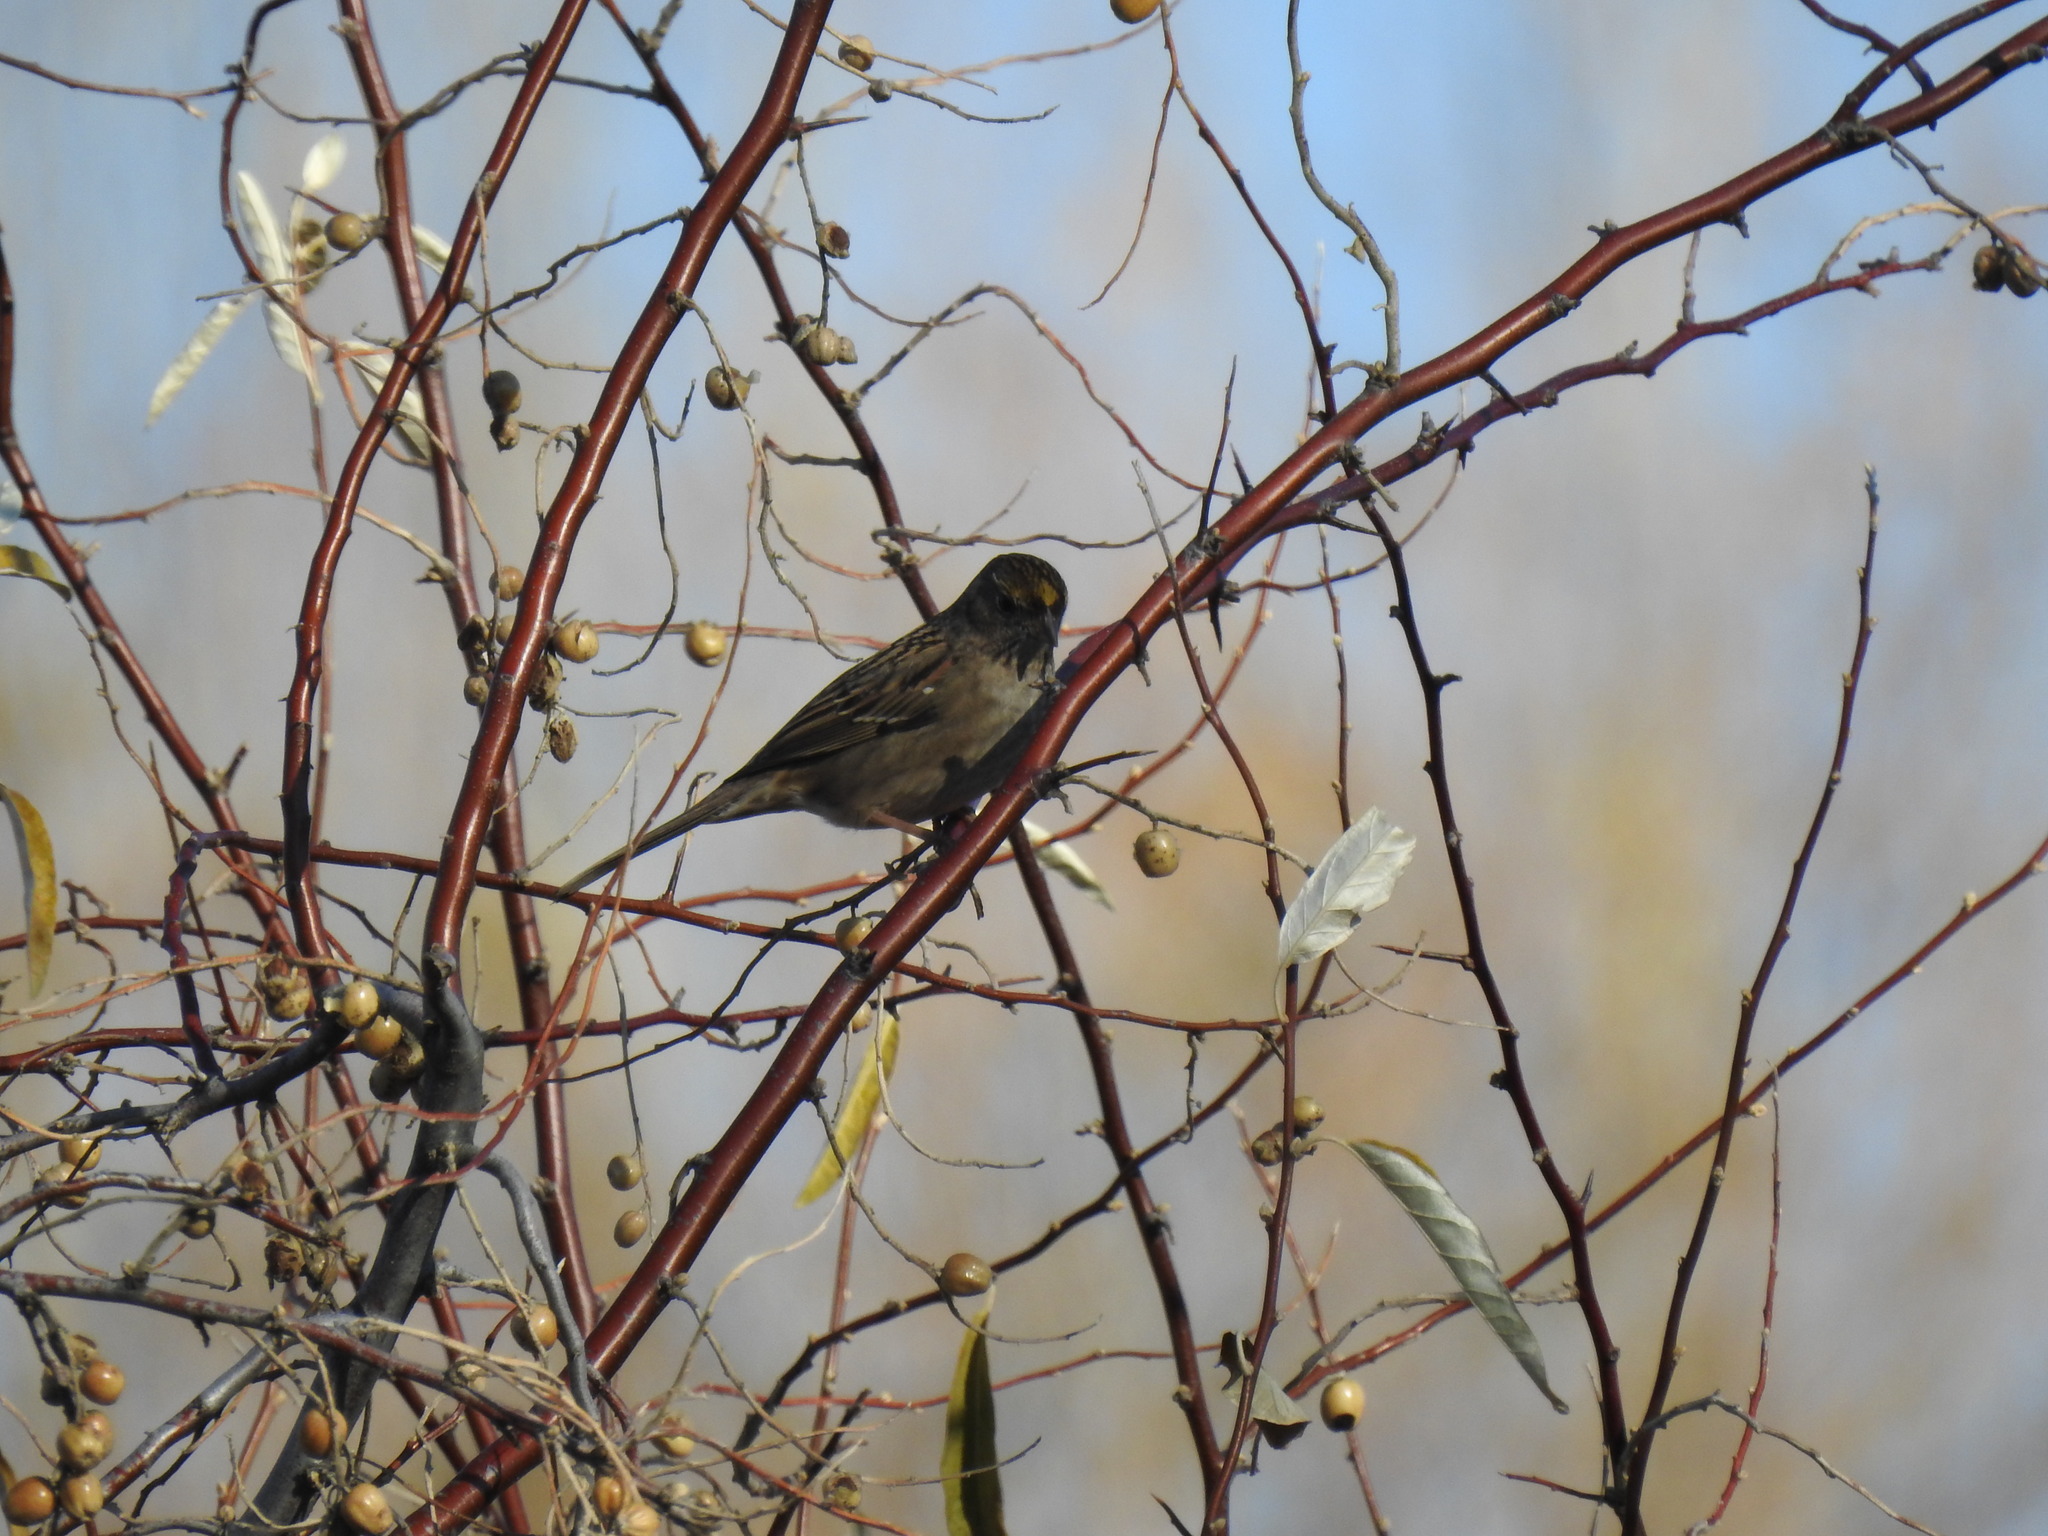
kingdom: Animalia
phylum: Chordata
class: Aves
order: Passeriformes
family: Passerellidae
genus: Zonotrichia
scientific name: Zonotrichia atricapilla
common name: Golden-crowned sparrow
